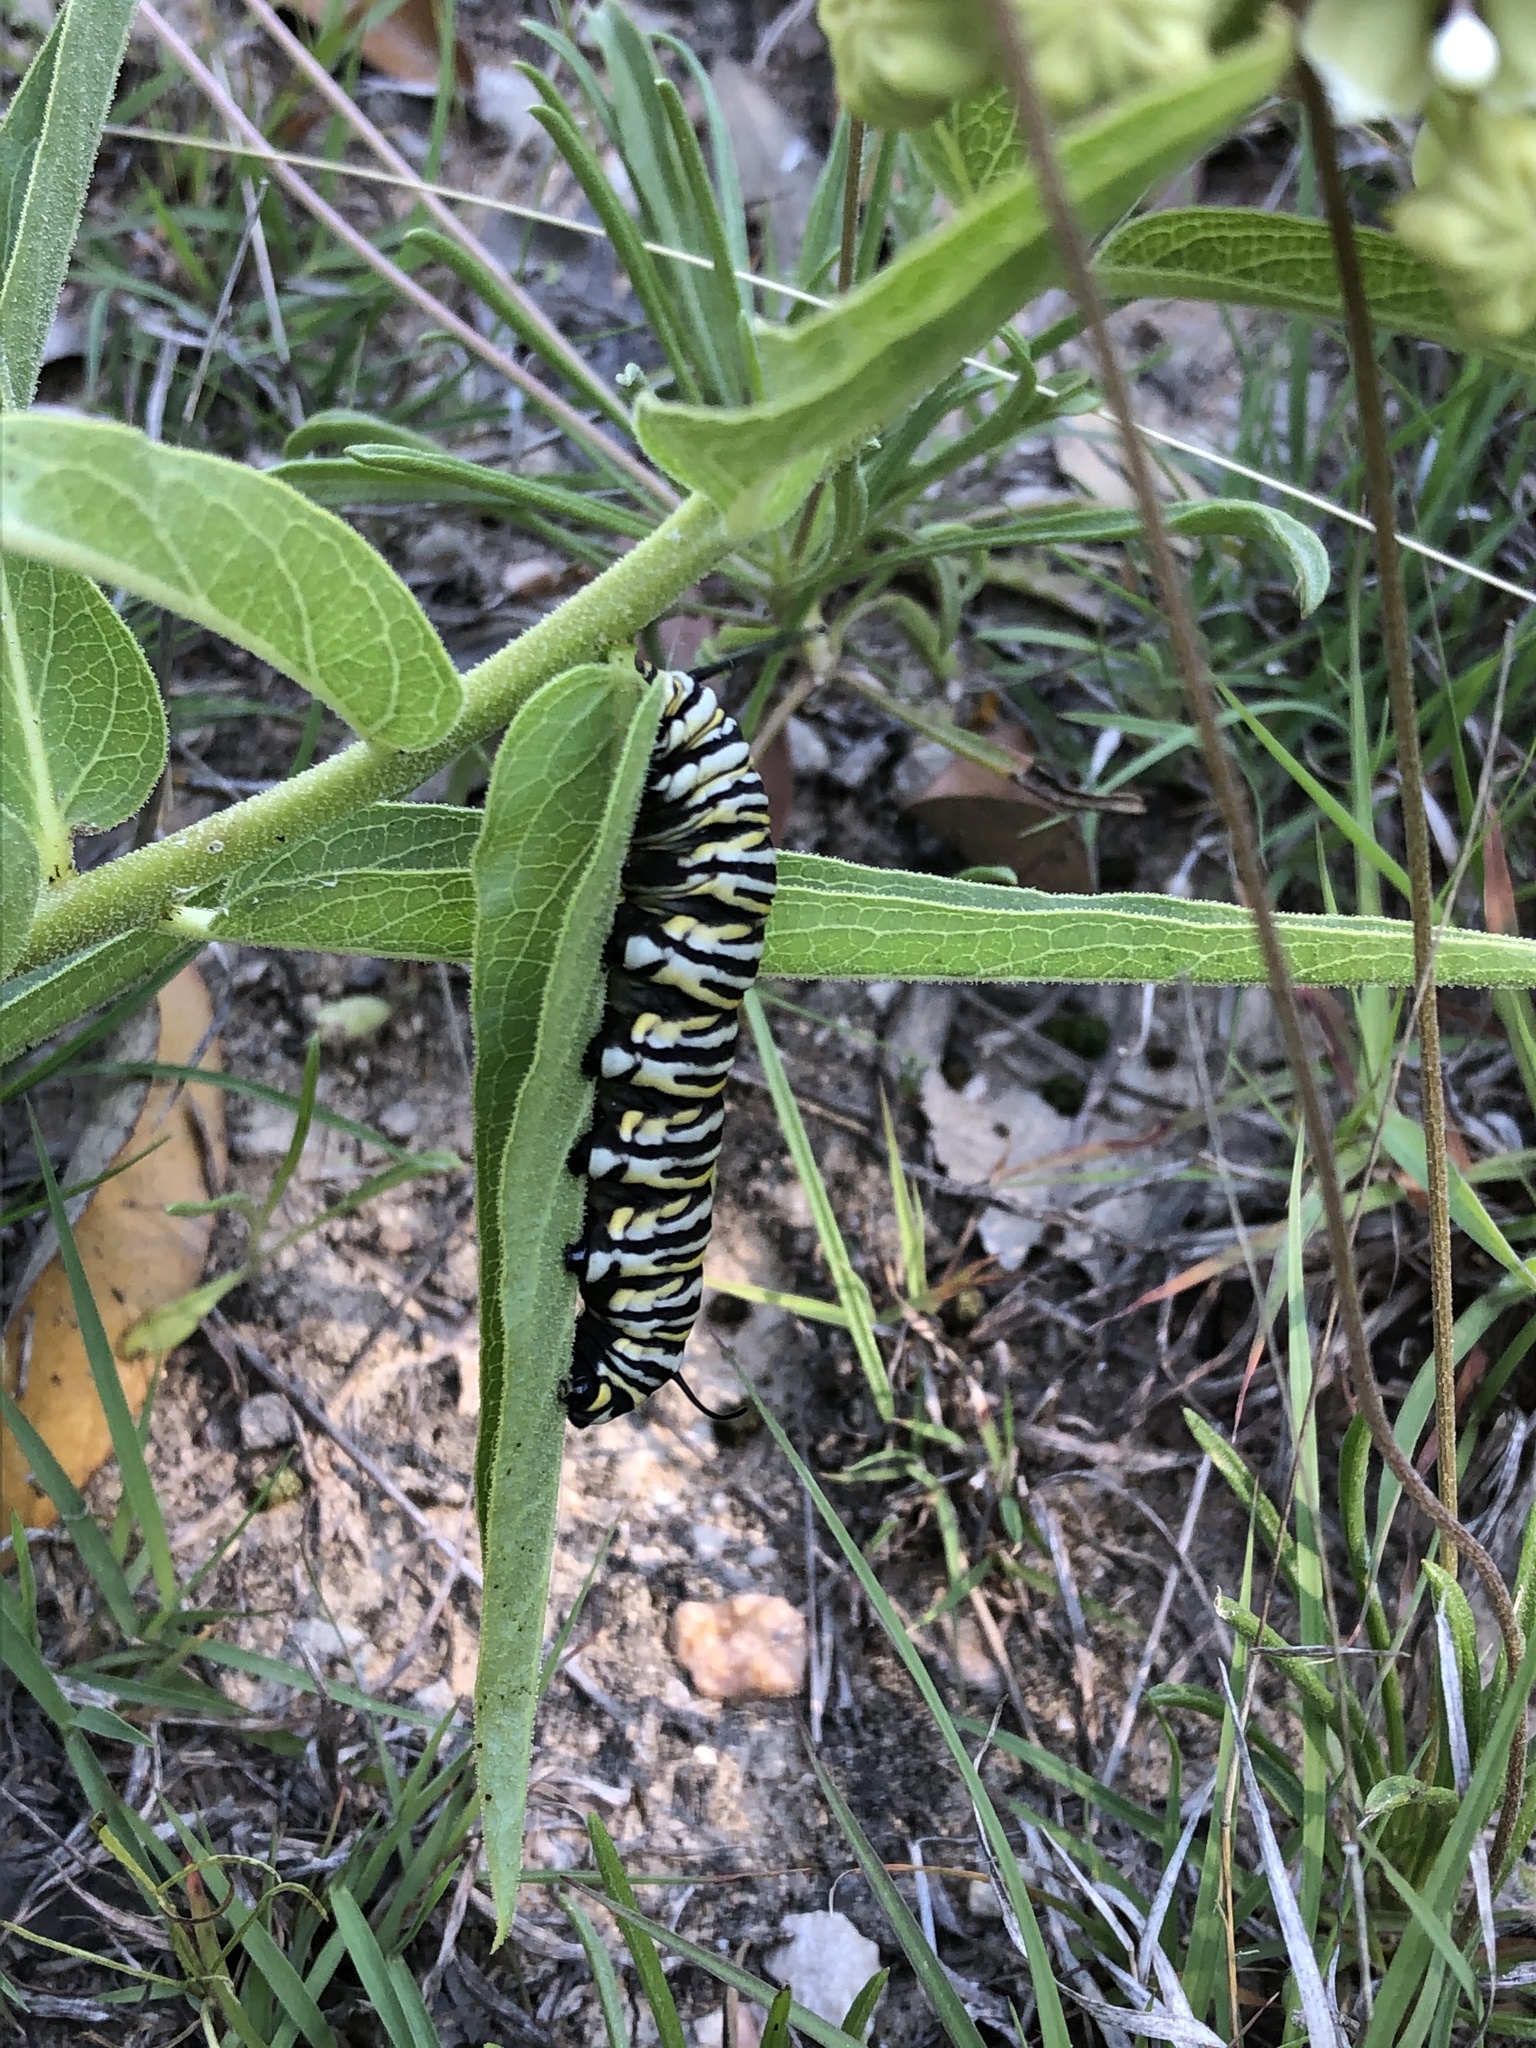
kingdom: Animalia
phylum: Arthropoda
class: Insecta
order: Lepidoptera
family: Nymphalidae
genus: Danaus
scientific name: Danaus plexippus
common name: Monarch
